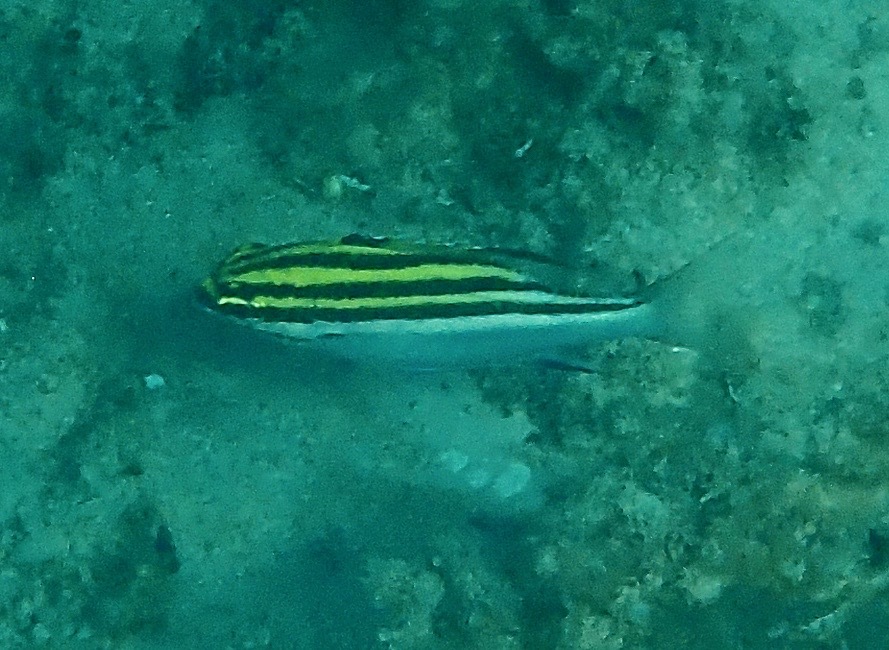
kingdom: Animalia
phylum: Chordata
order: Perciformes
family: Nemipteridae
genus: Scolopsis
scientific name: Scolopsis bilineata
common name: Two-lined monocle bream
